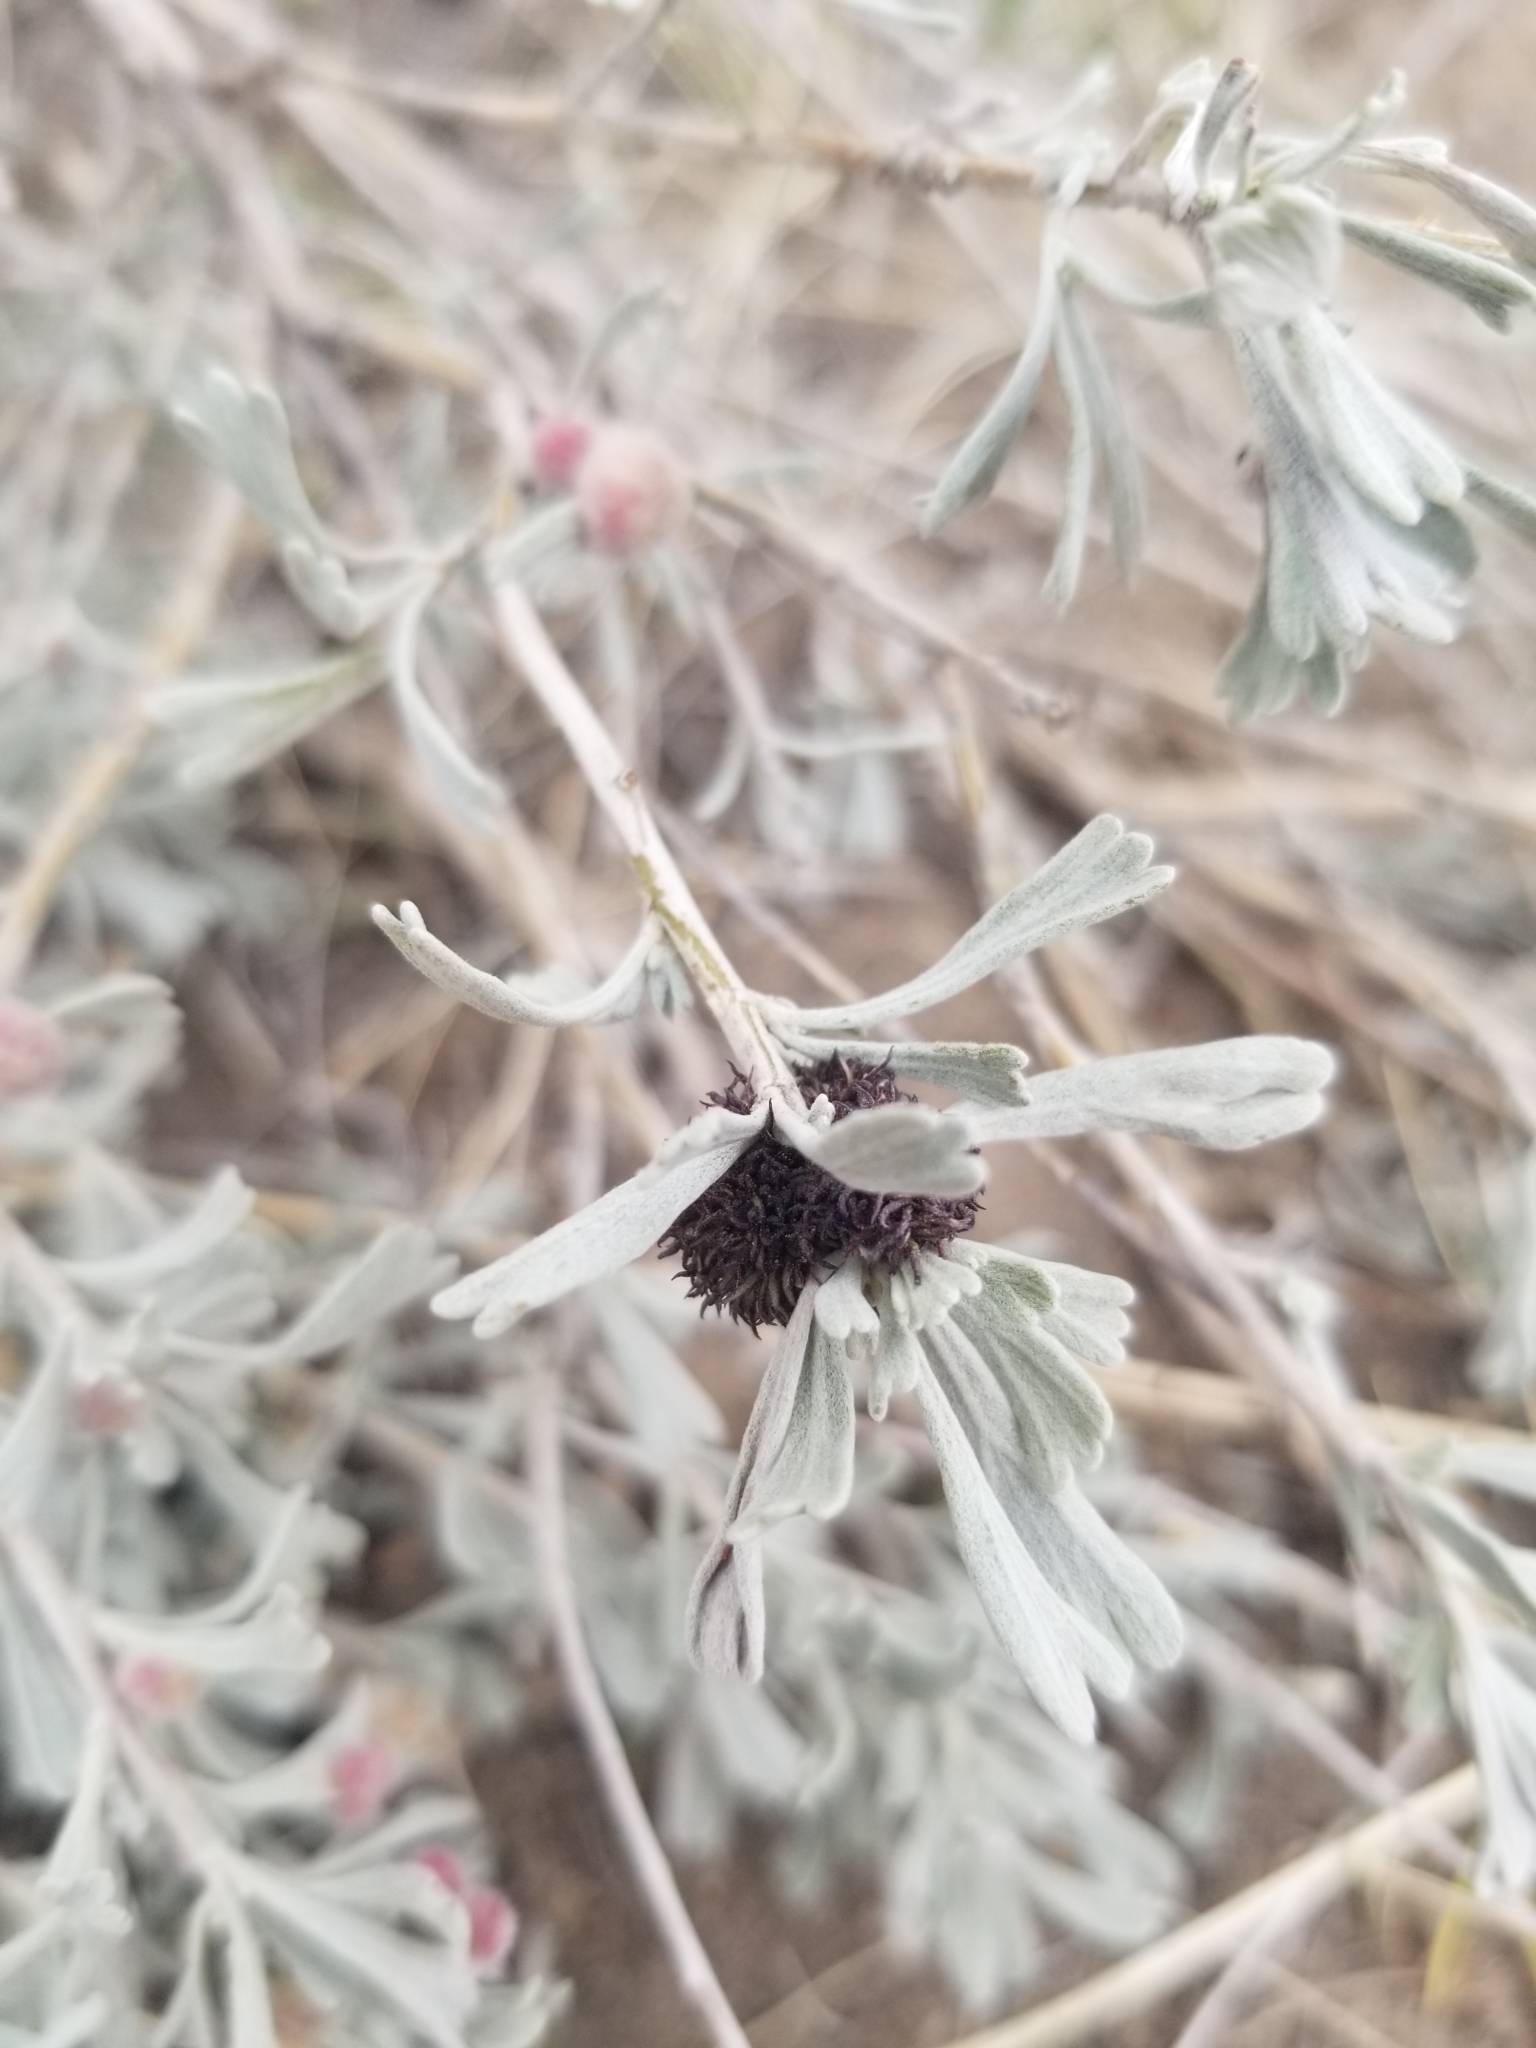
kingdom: Animalia
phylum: Arthropoda
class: Insecta
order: Diptera
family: Cecidomyiidae
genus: Rhopalomyia
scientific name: Rhopalomyia medusa
